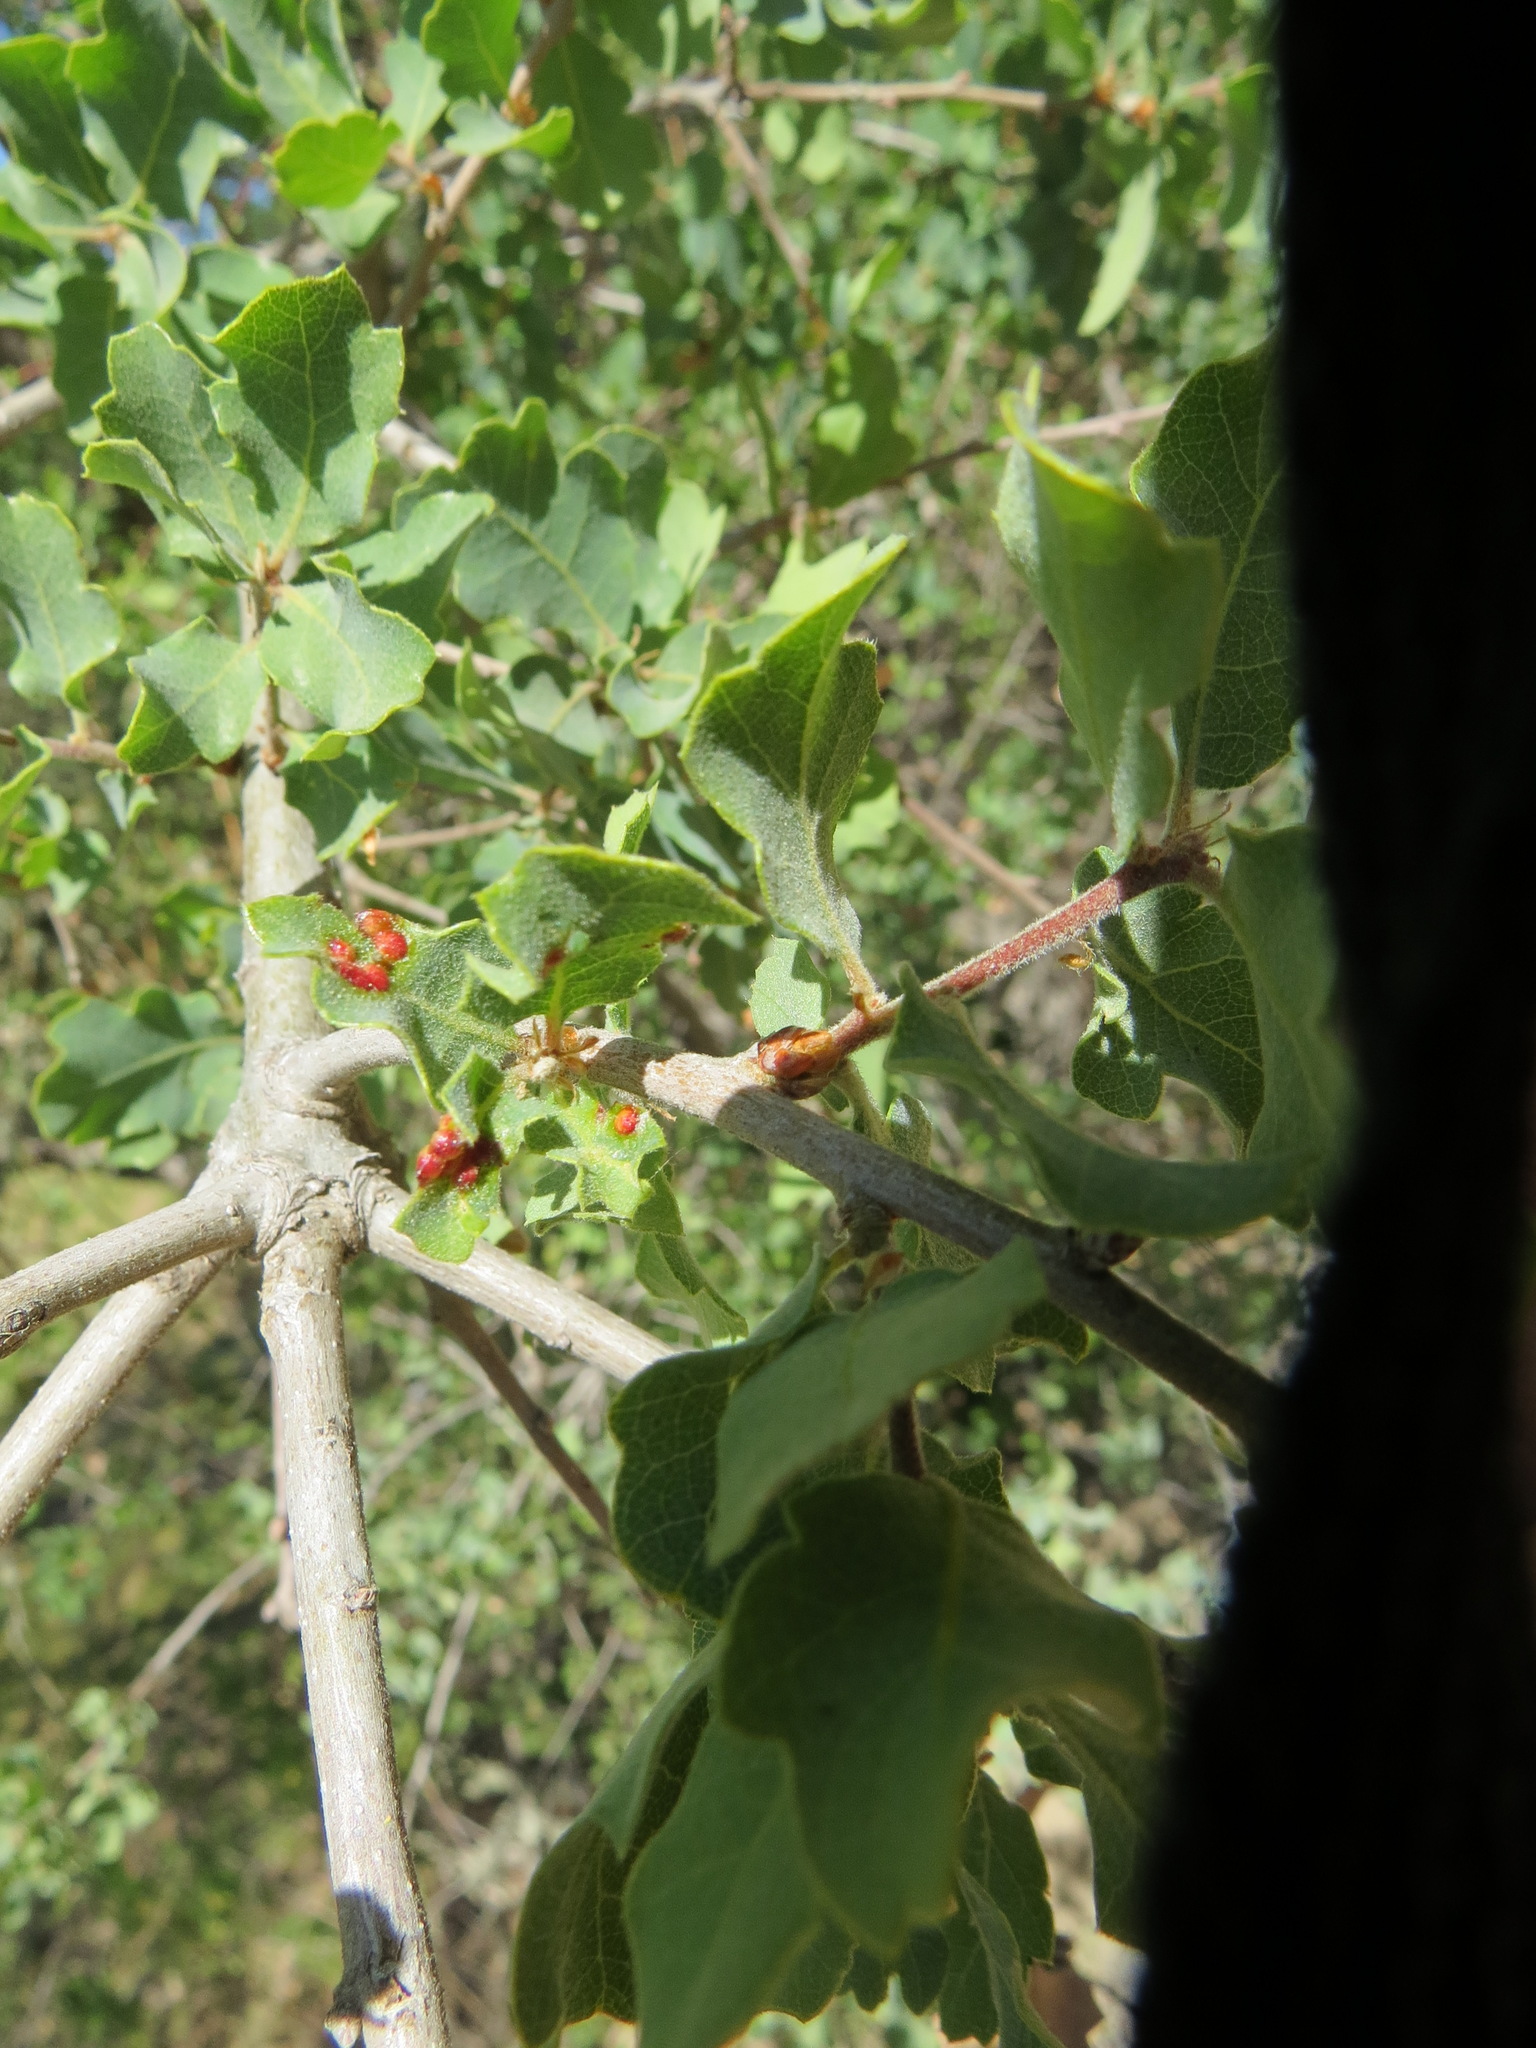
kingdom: Animalia
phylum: Arthropoda
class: Insecta
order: Hymenoptera
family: Cynipidae
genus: Neuroterus
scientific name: Neuroterus saltarius
